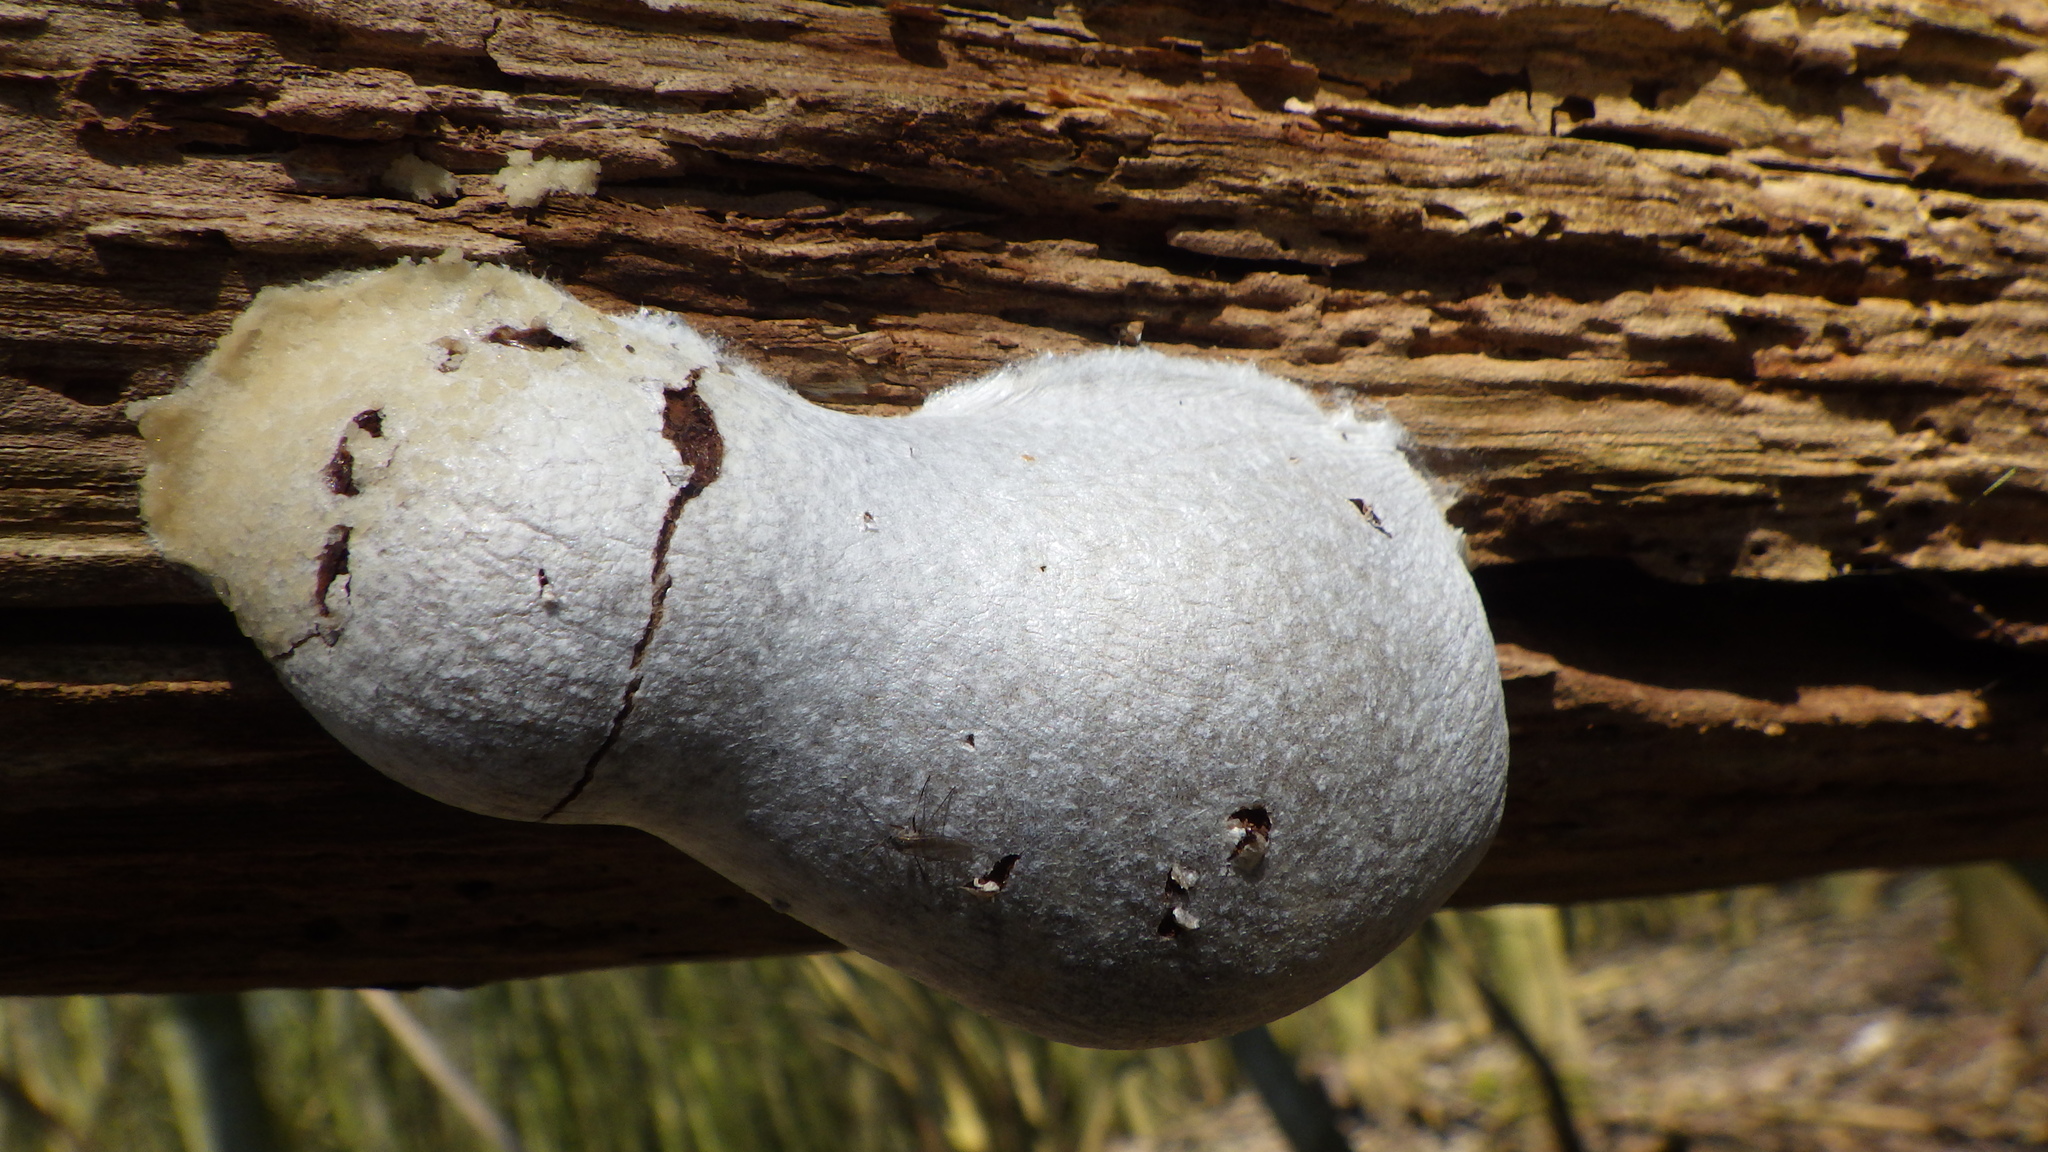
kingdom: Protozoa
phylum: Mycetozoa
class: Myxomycetes
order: Cribrariales
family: Tubiferaceae
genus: Reticularia
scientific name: Reticularia lycoperdon
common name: False puffball
